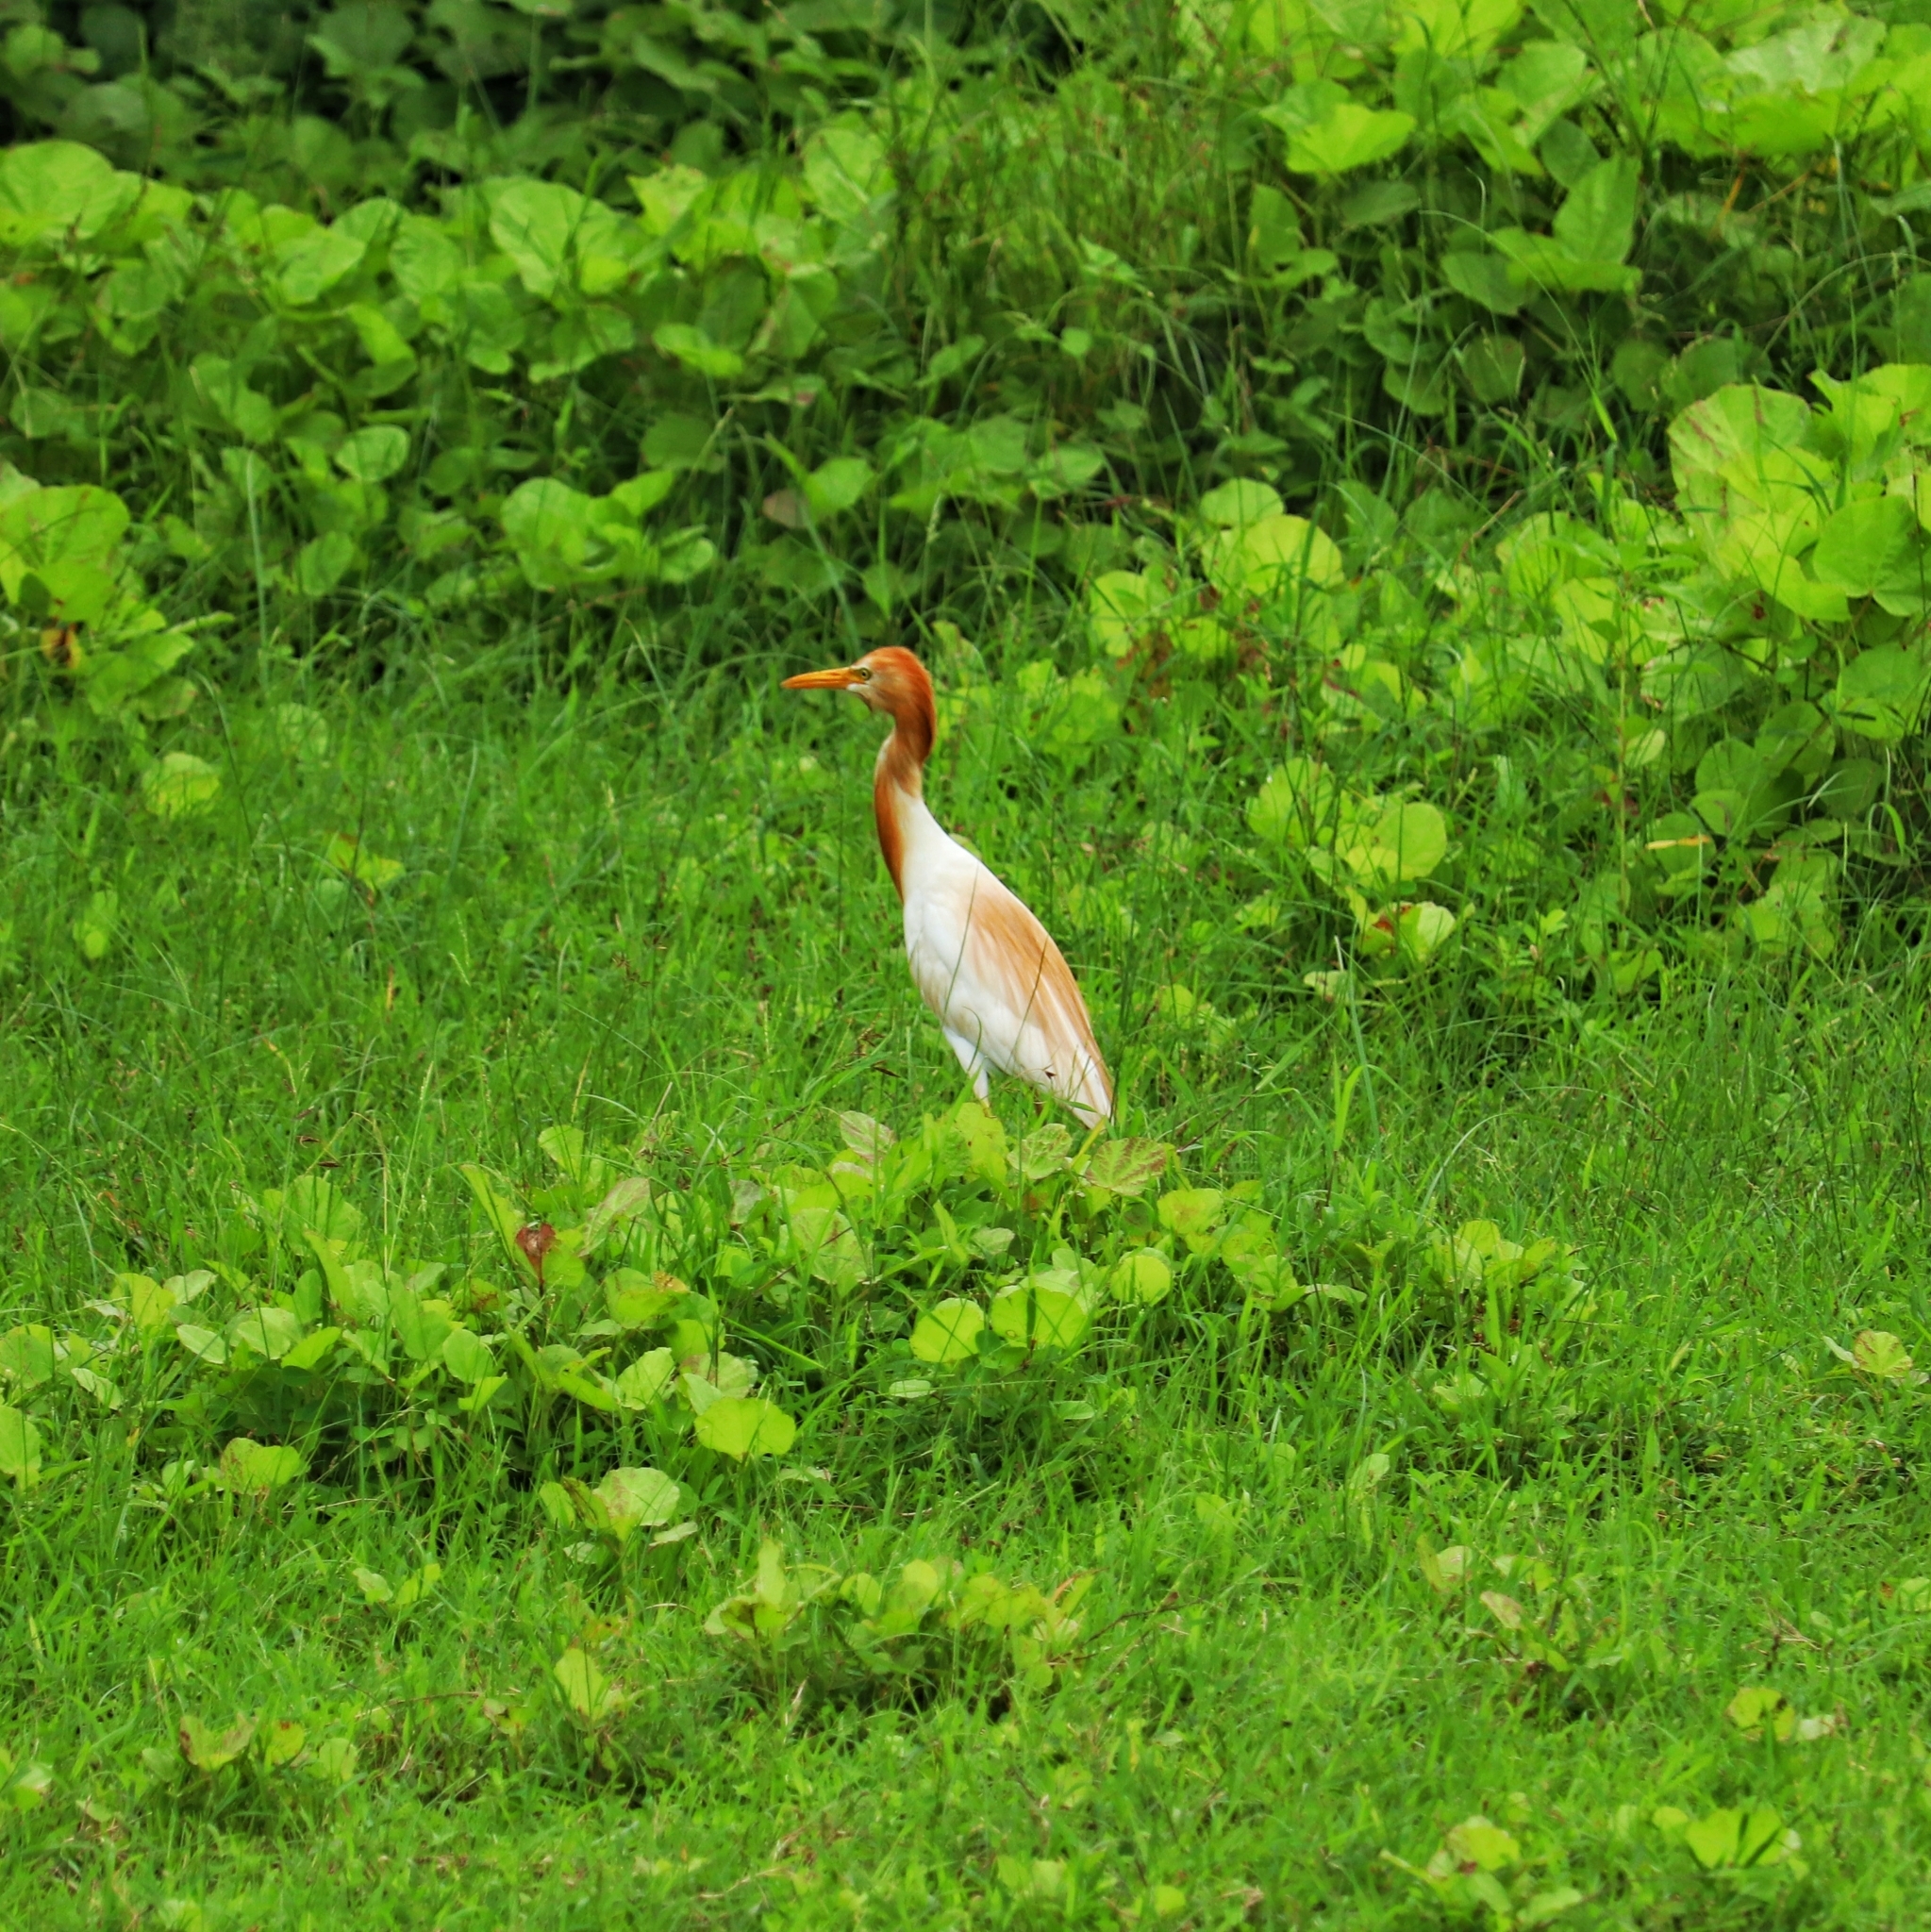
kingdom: Animalia
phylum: Chordata
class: Aves
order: Pelecaniformes
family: Ardeidae
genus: Bubulcus
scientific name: Bubulcus coromandus
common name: Eastern cattle egret
